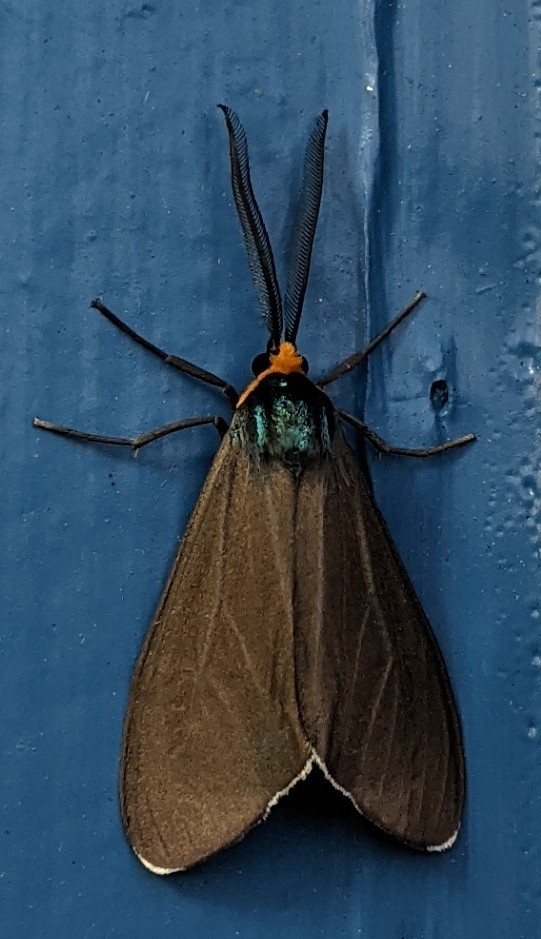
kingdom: Animalia
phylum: Arthropoda
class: Insecta
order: Lepidoptera
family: Erebidae
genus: Ctenucha
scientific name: Ctenucha virginica
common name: Virginia ctenucha moth
